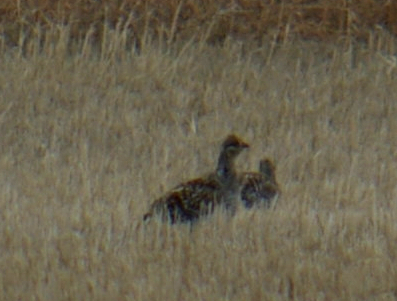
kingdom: Animalia
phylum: Chordata
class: Aves
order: Galliformes
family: Phasianidae
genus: Tympanuchus
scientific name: Tympanuchus phasianellus
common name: Sharp-tailed grouse
